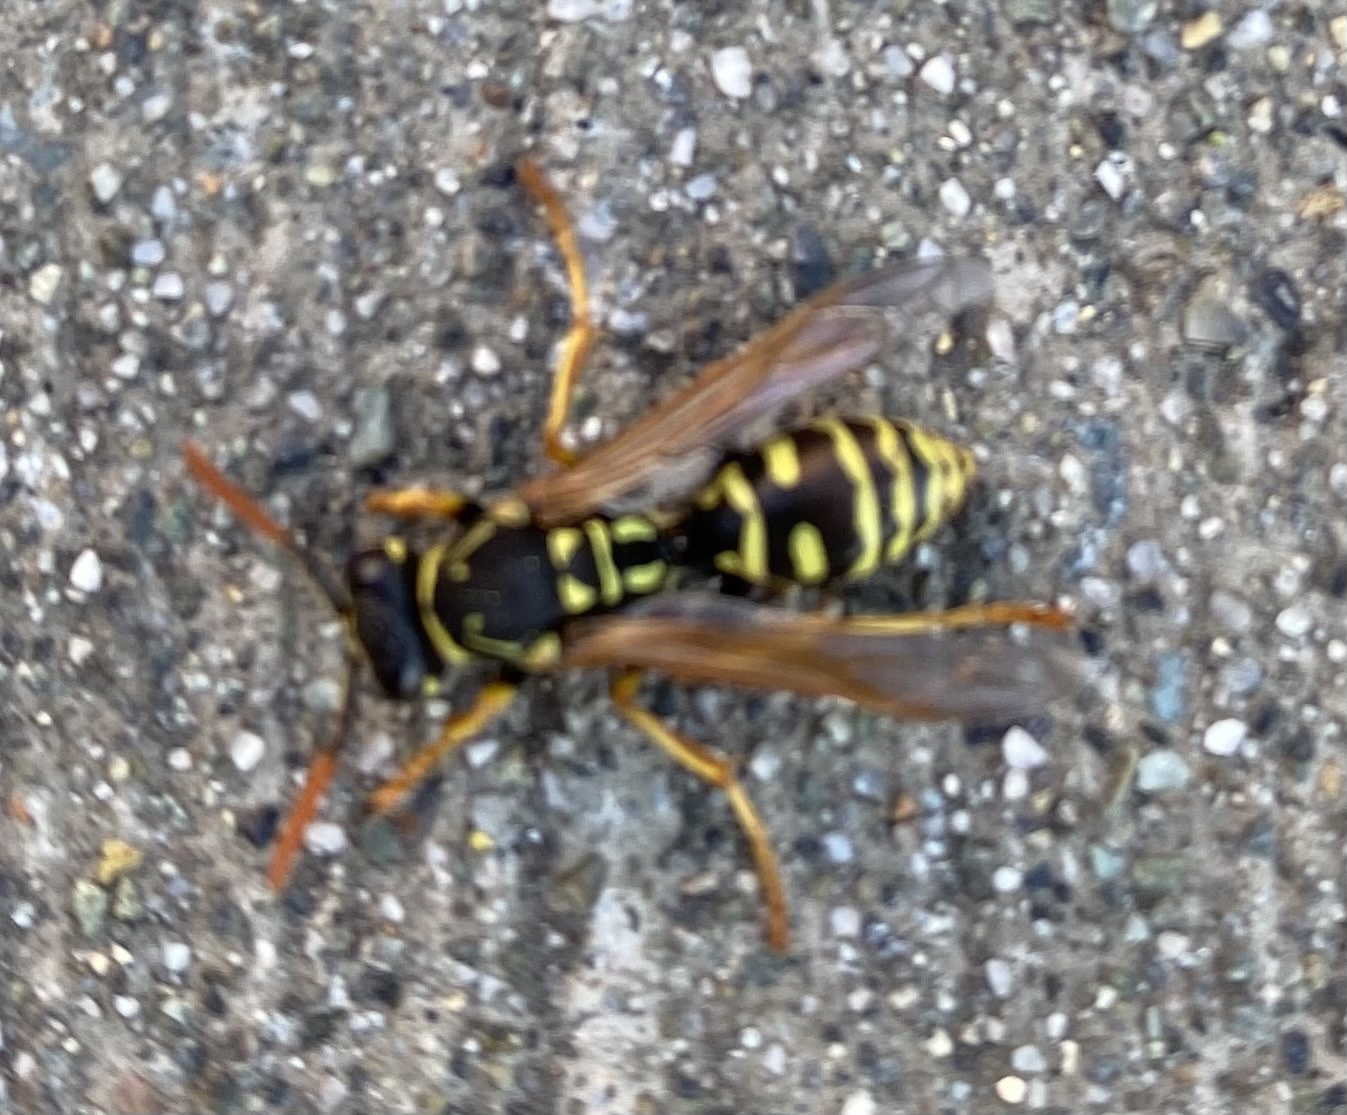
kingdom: Animalia
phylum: Arthropoda
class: Insecta
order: Hymenoptera
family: Eumenidae
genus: Polistes
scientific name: Polistes dominula
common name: Paper wasp
